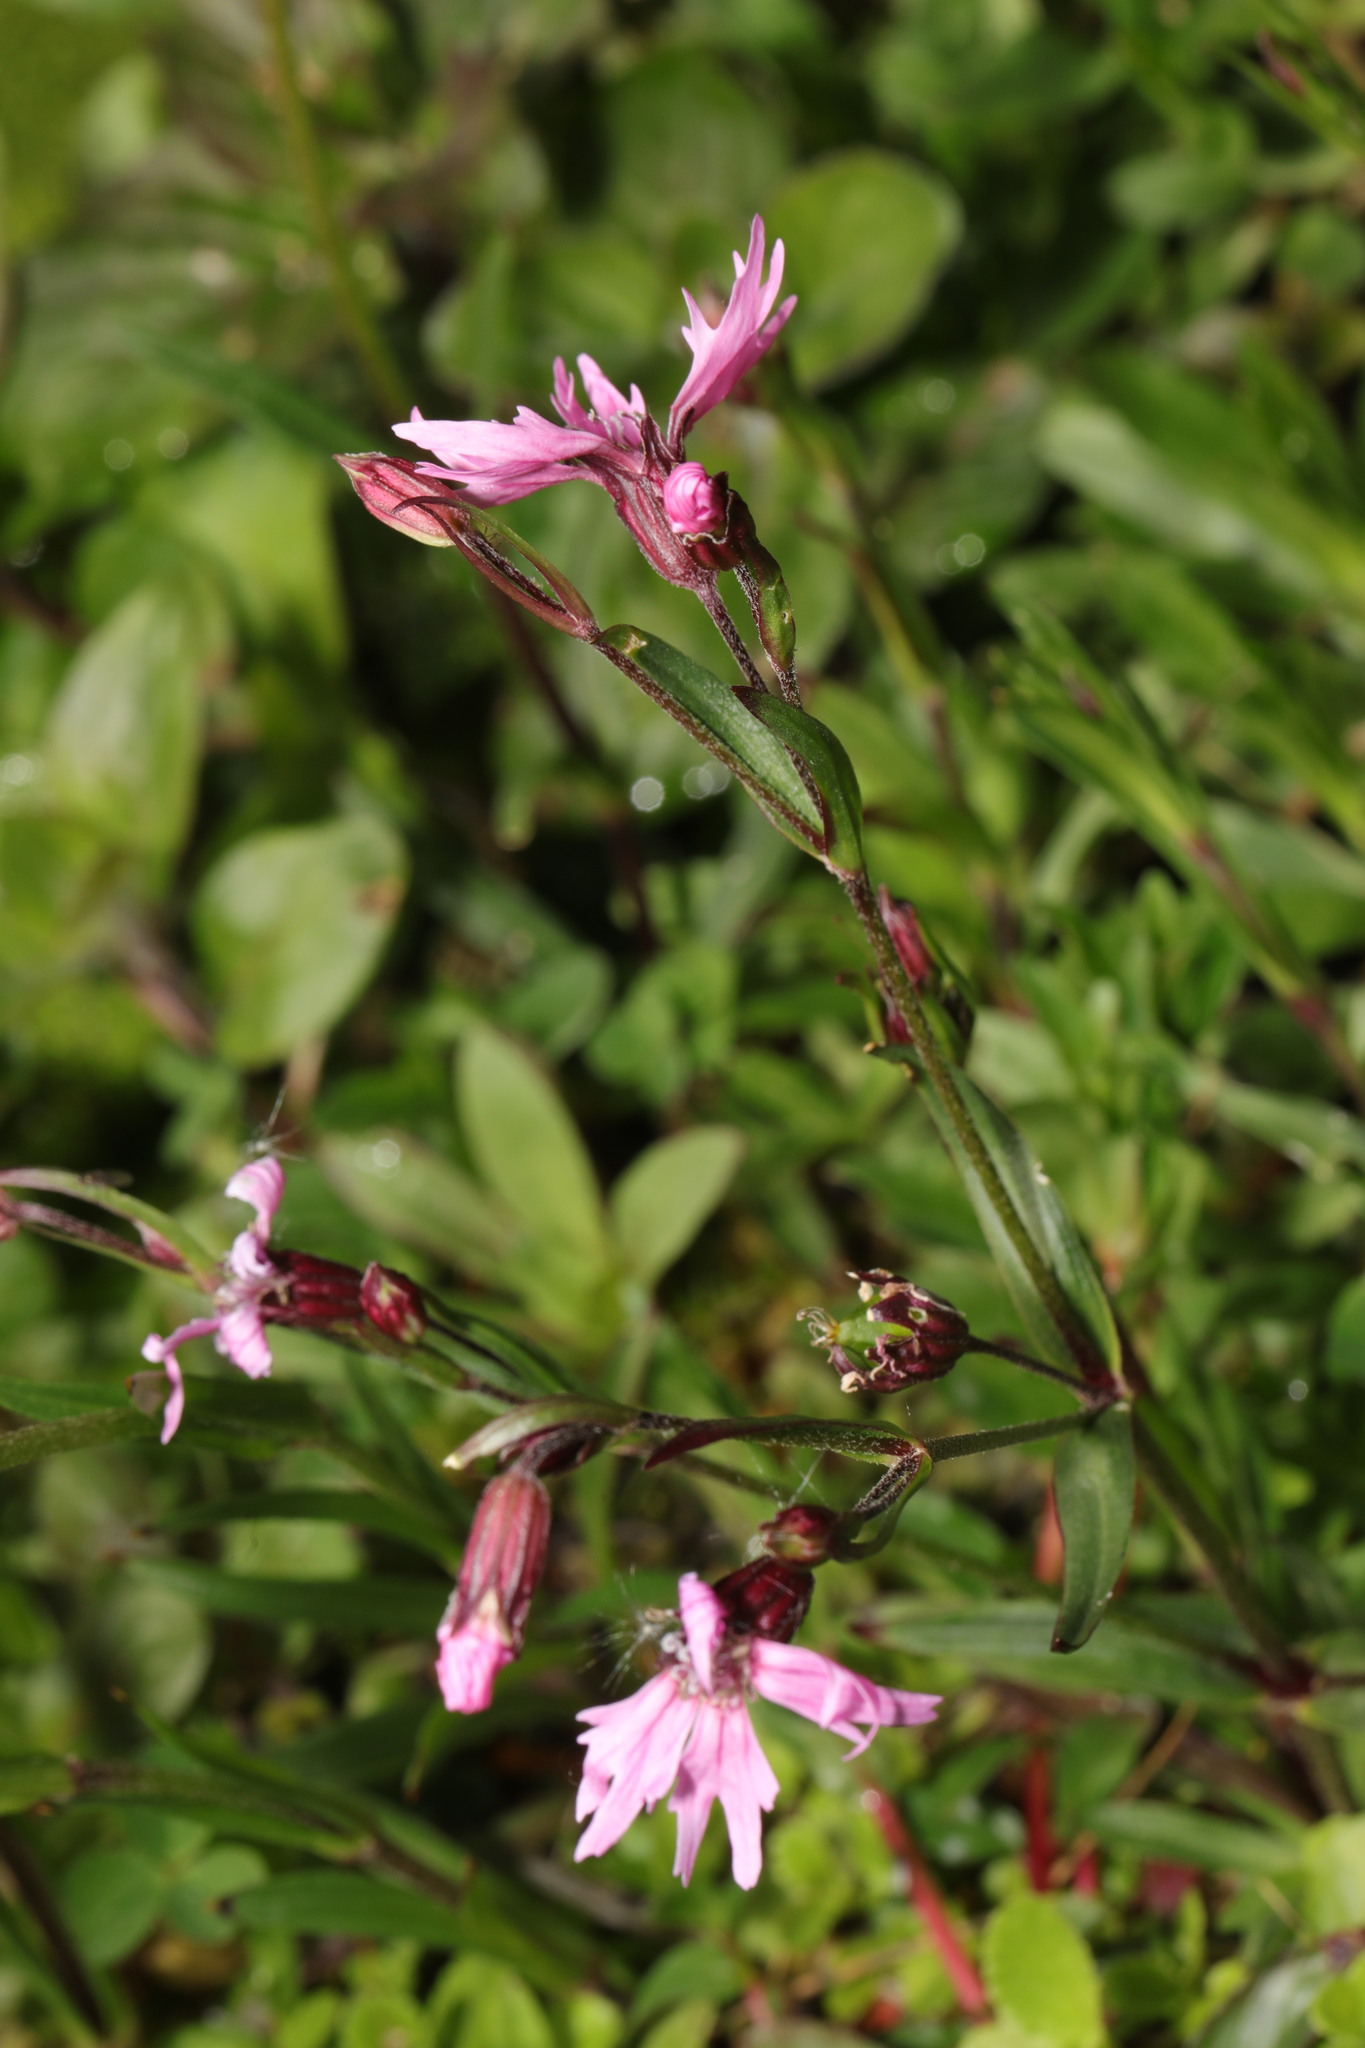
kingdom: Plantae
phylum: Tracheophyta
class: Magnoliopsida
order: Caryophyllales
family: Caryophyllaceae
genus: Silene
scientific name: Silene flos-cuculi
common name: Ragged-robin
